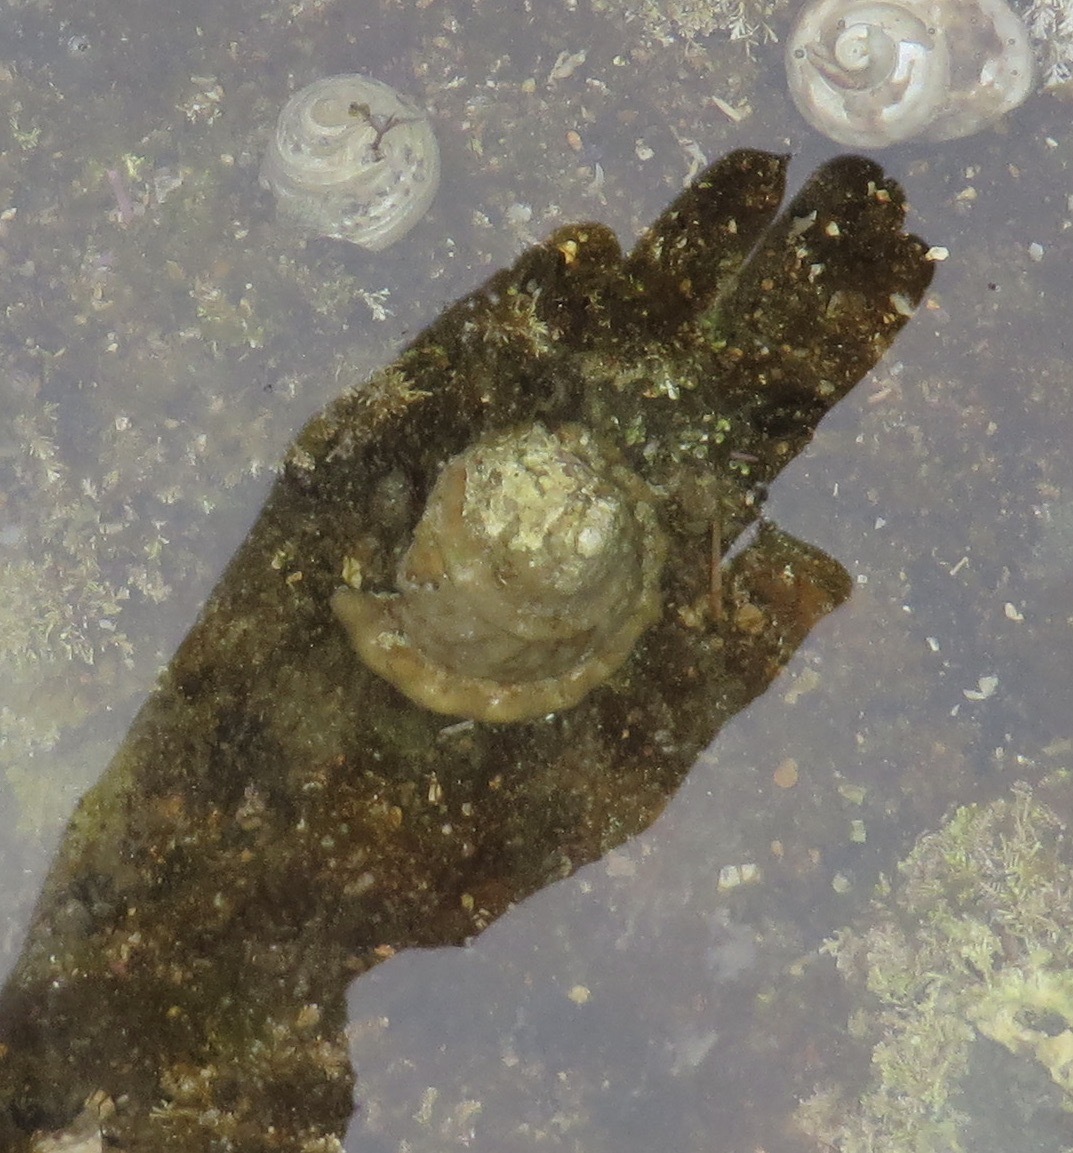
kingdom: Animalia
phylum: Mollusca
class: Gastropoda
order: Trochida
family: Turbinidae
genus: Megastraea
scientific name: Megastraea undosa
